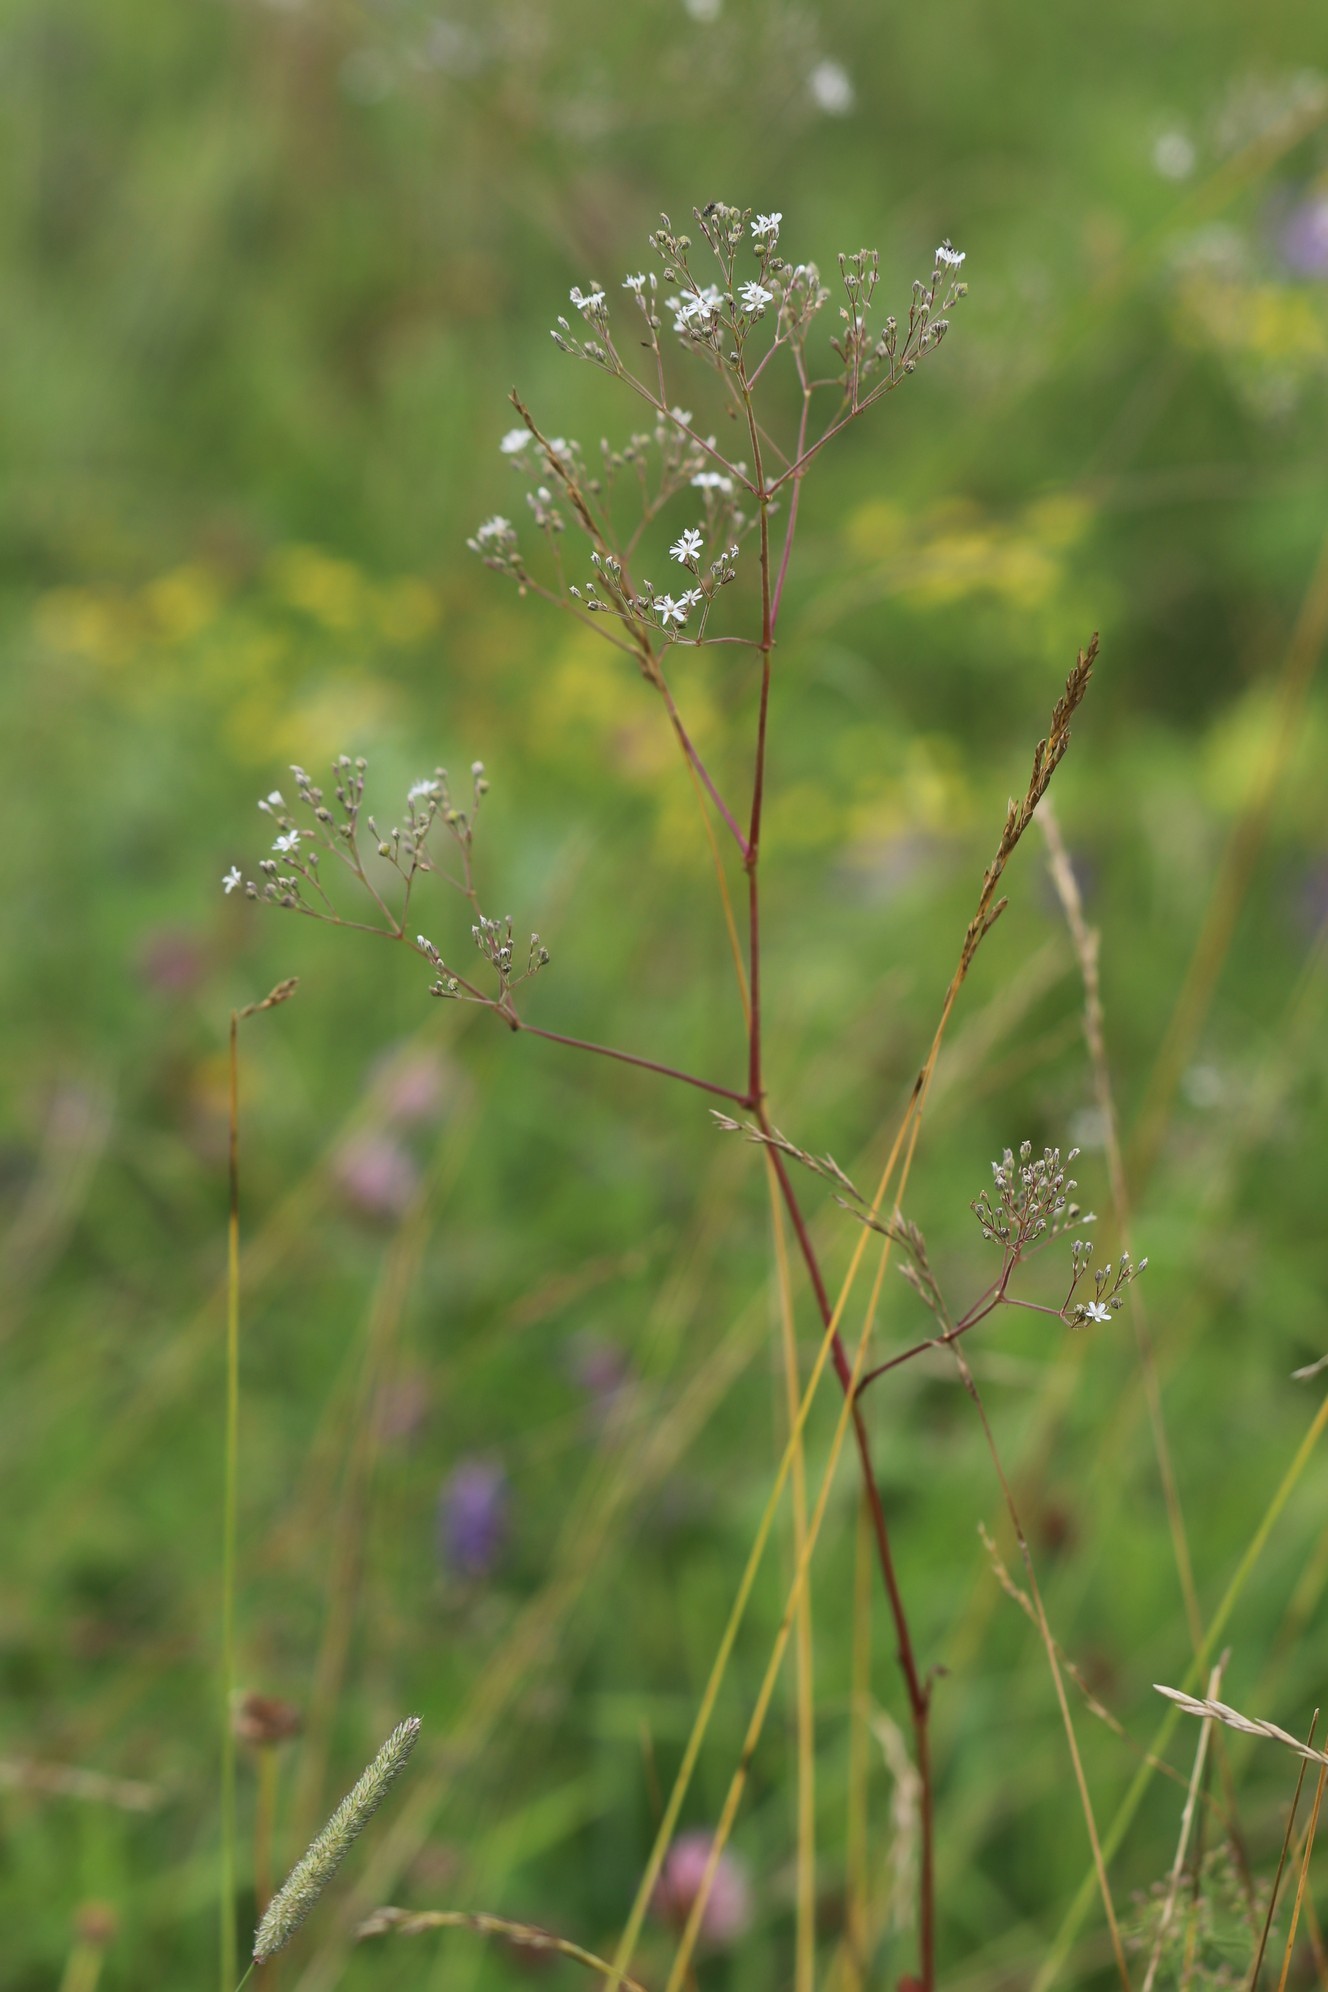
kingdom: Plantae
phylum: Tracheophyta
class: Magnoliopsida
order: Caryophyllales
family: Caryophyllaceae
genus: Gypsophila
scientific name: Gypsophila altissima
